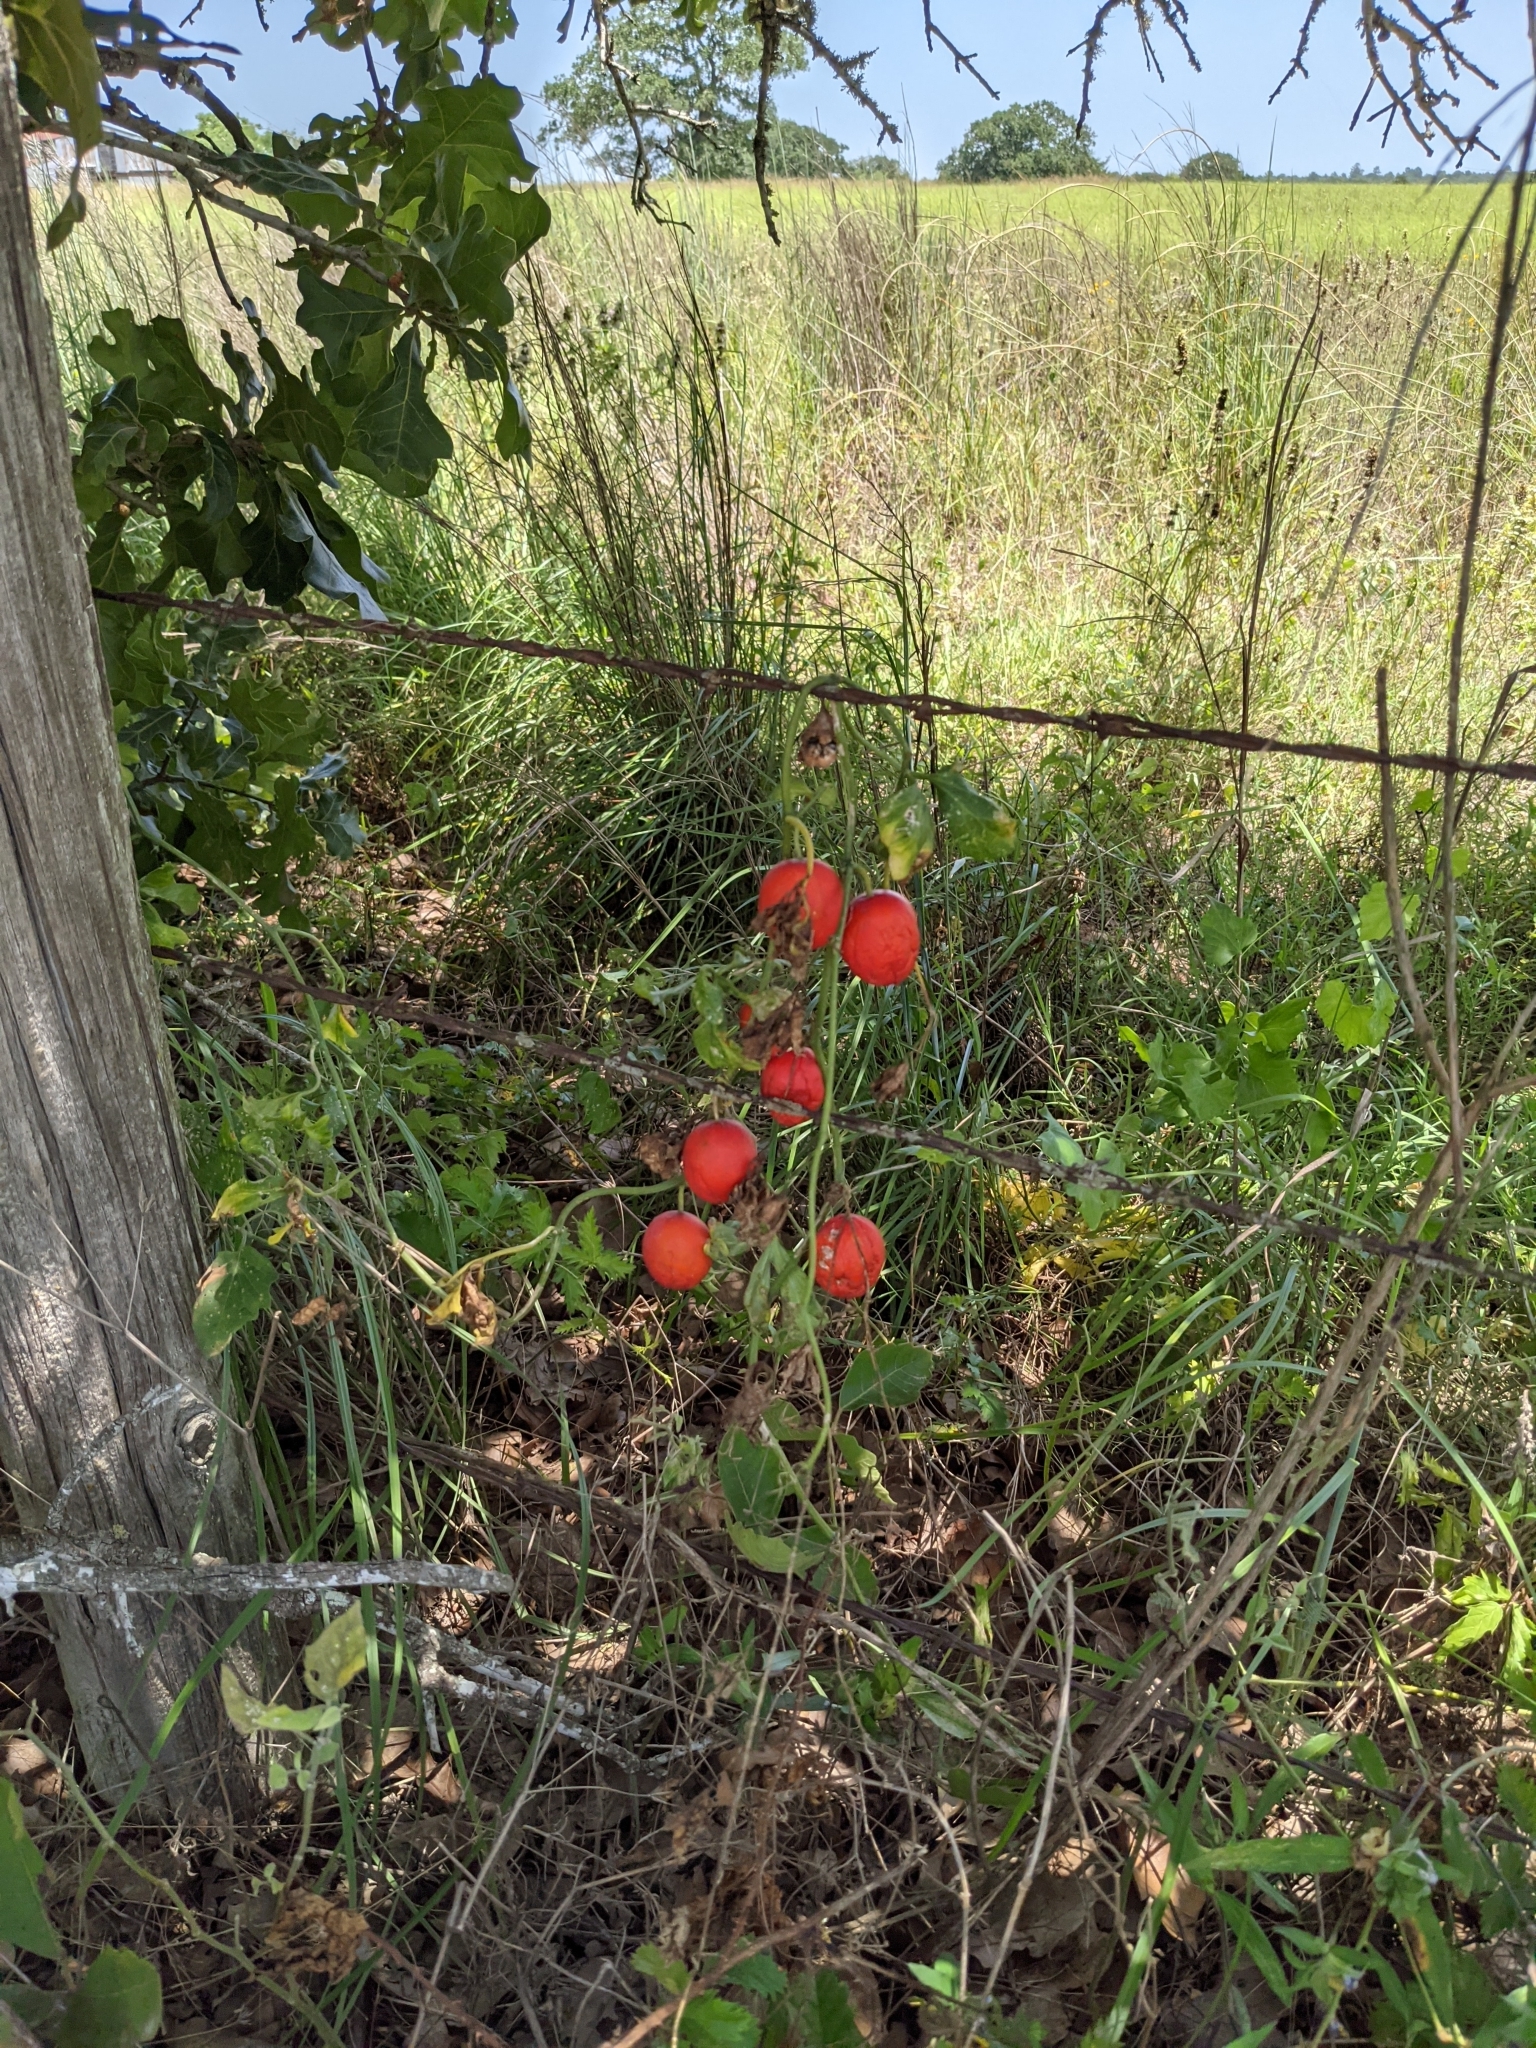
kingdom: Plantae
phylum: Tracheophyta
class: Magnoliopsida
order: Cucurbitales
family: Cucurbitaceae
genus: Ibervillea
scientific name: Ibervillea lindheimeri
